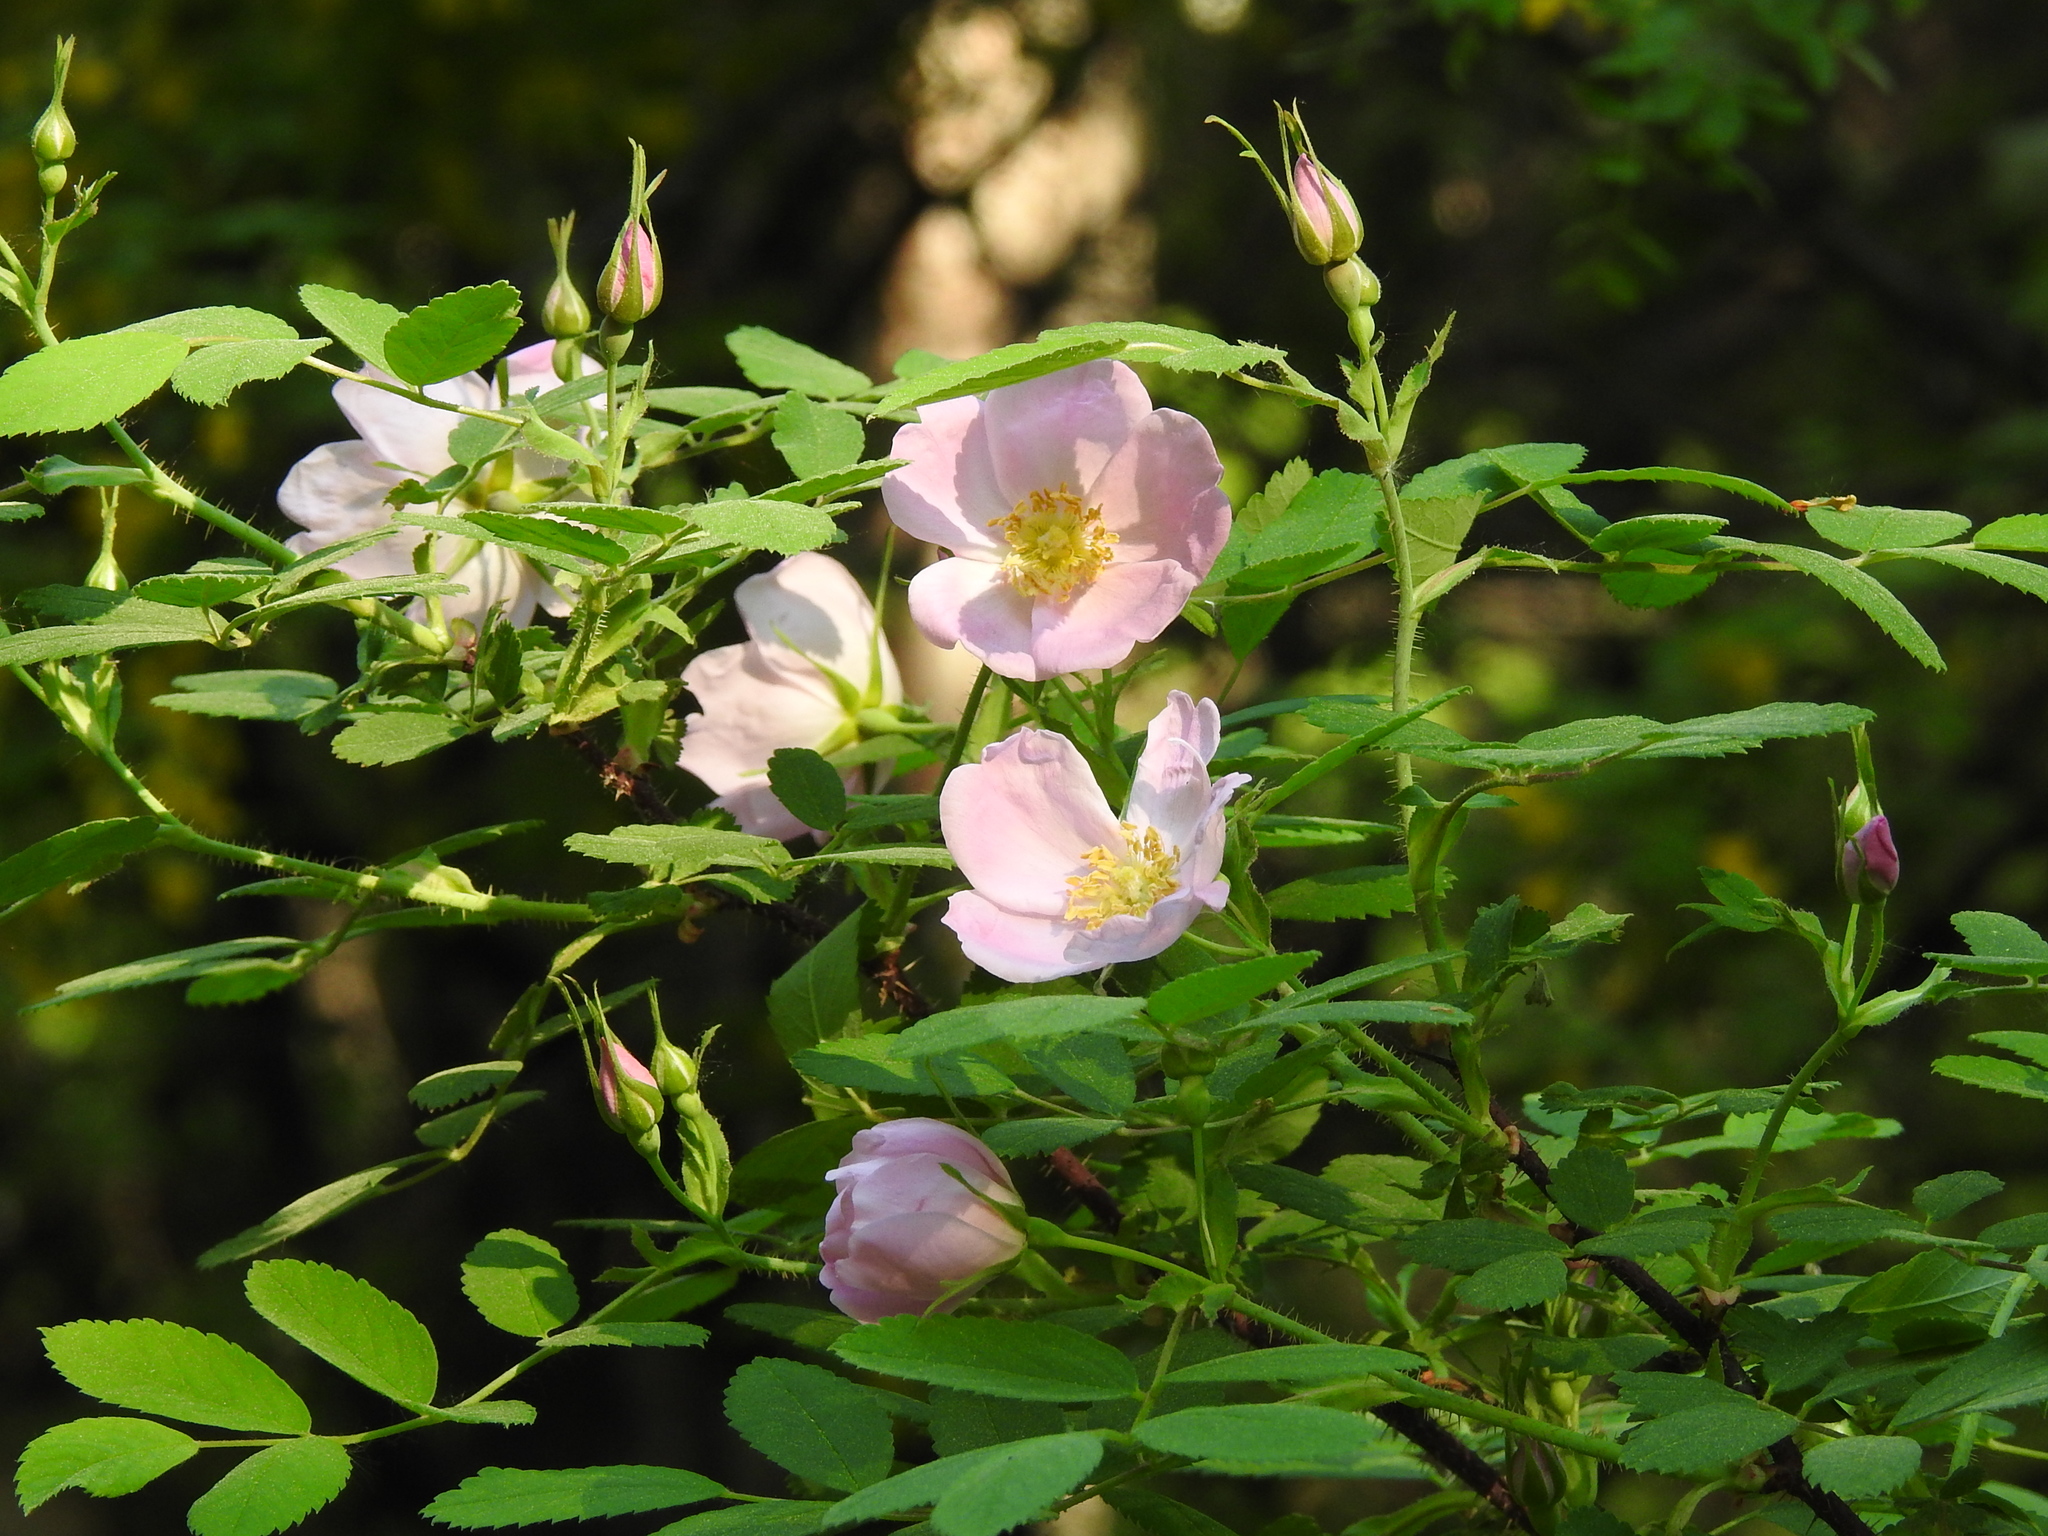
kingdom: Plantae
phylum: Tracheophyta
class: Magnoliopsida
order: Rosales
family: Rosaceae
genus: Rosa
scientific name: Rosa acicularis
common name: Prickly rose
